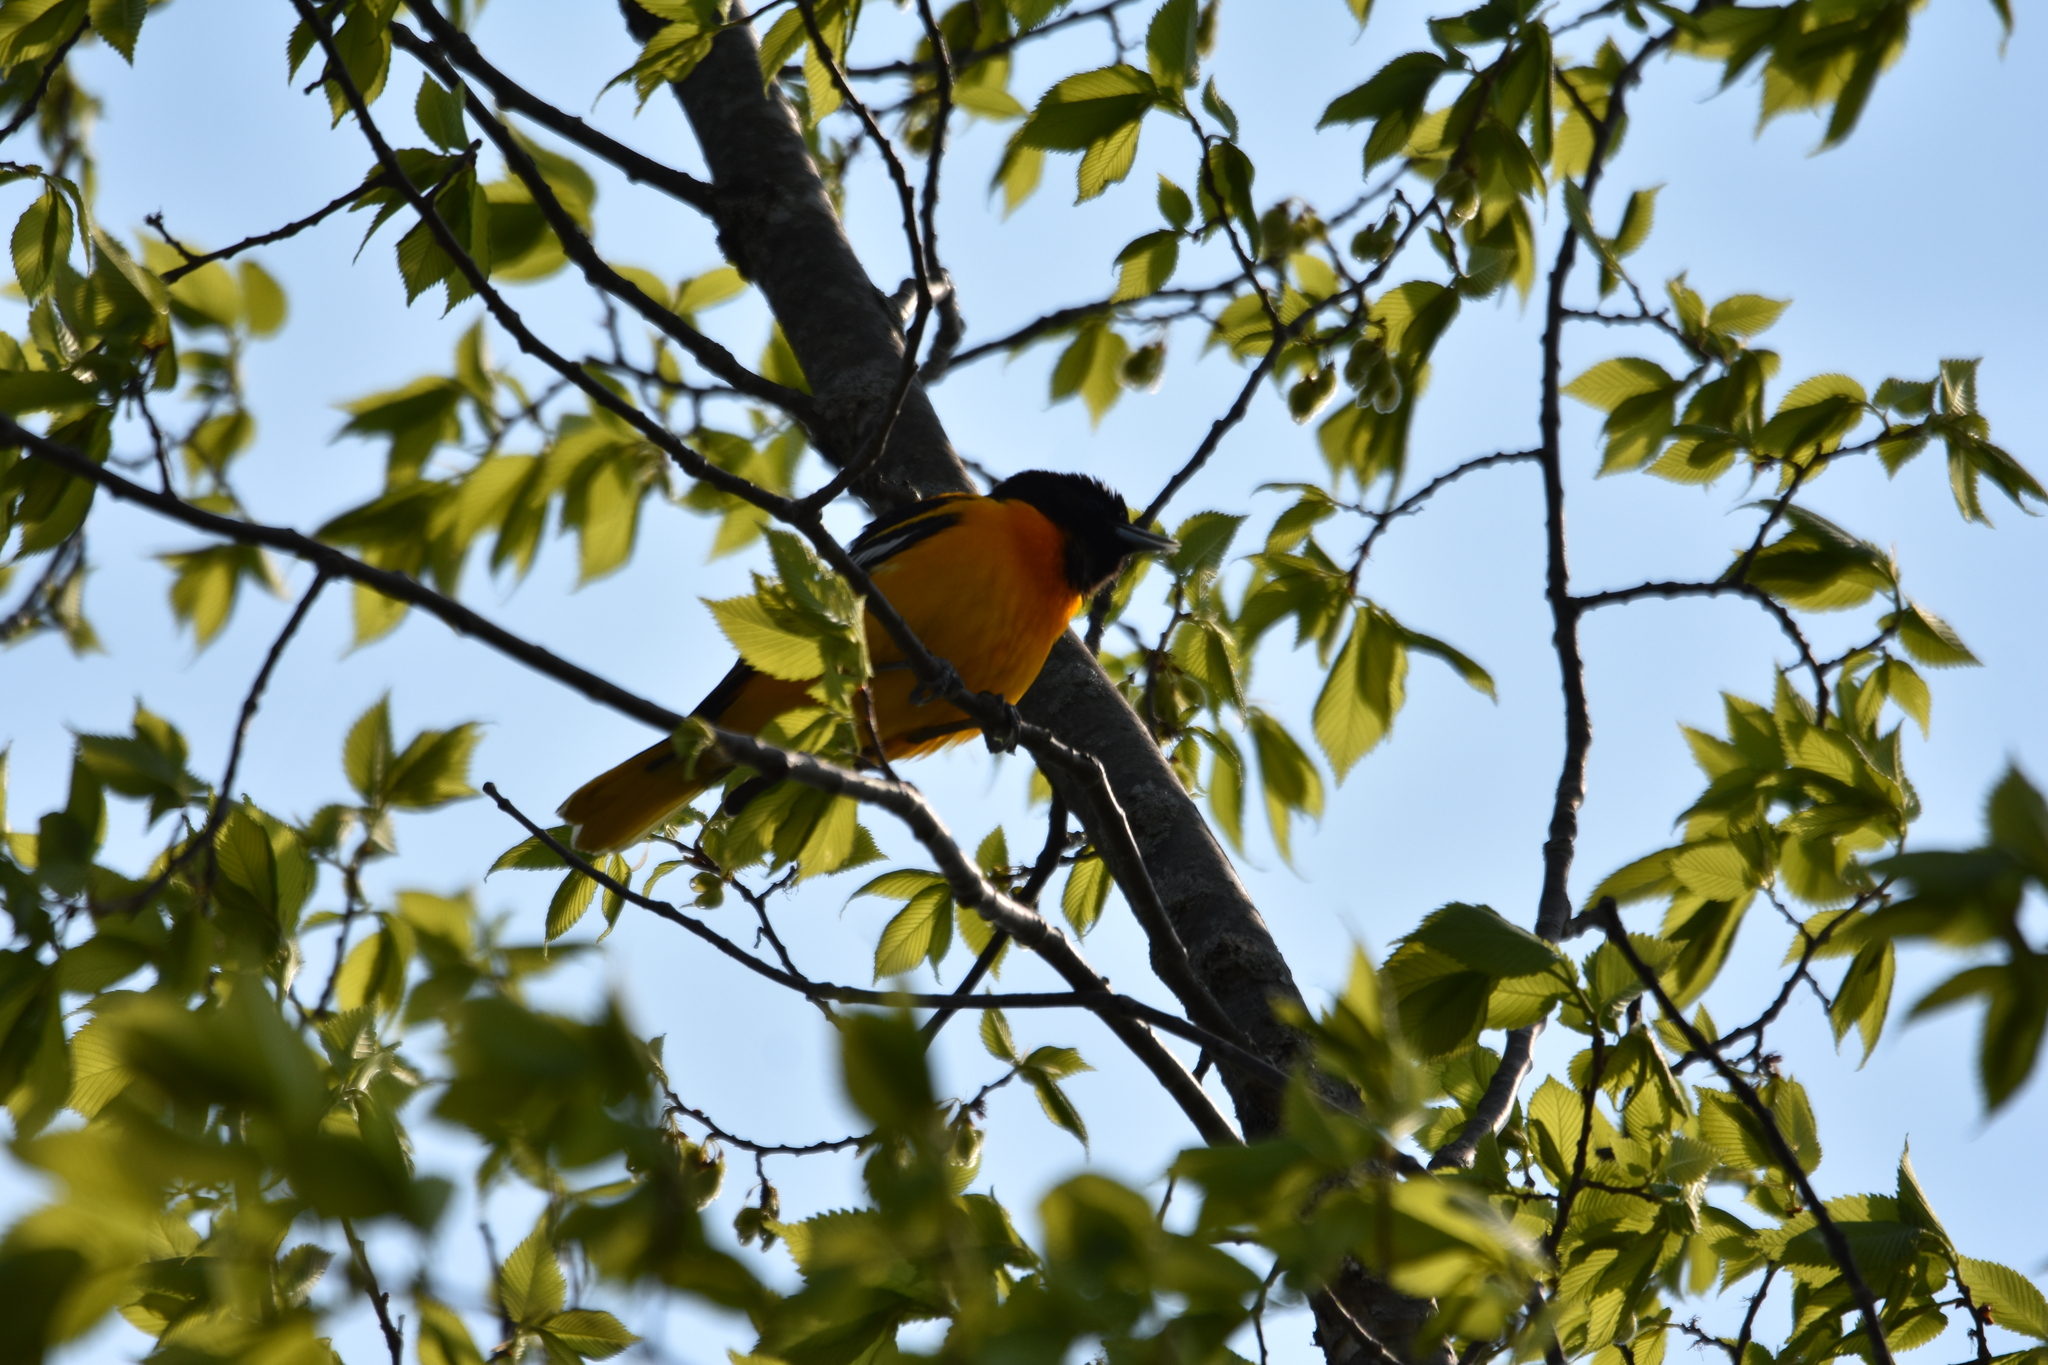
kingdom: Animalia
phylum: Chordata
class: Aves
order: Passeriformes
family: Icteridae
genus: Icterus
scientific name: Icterus galbula
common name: Baltimore oriole
